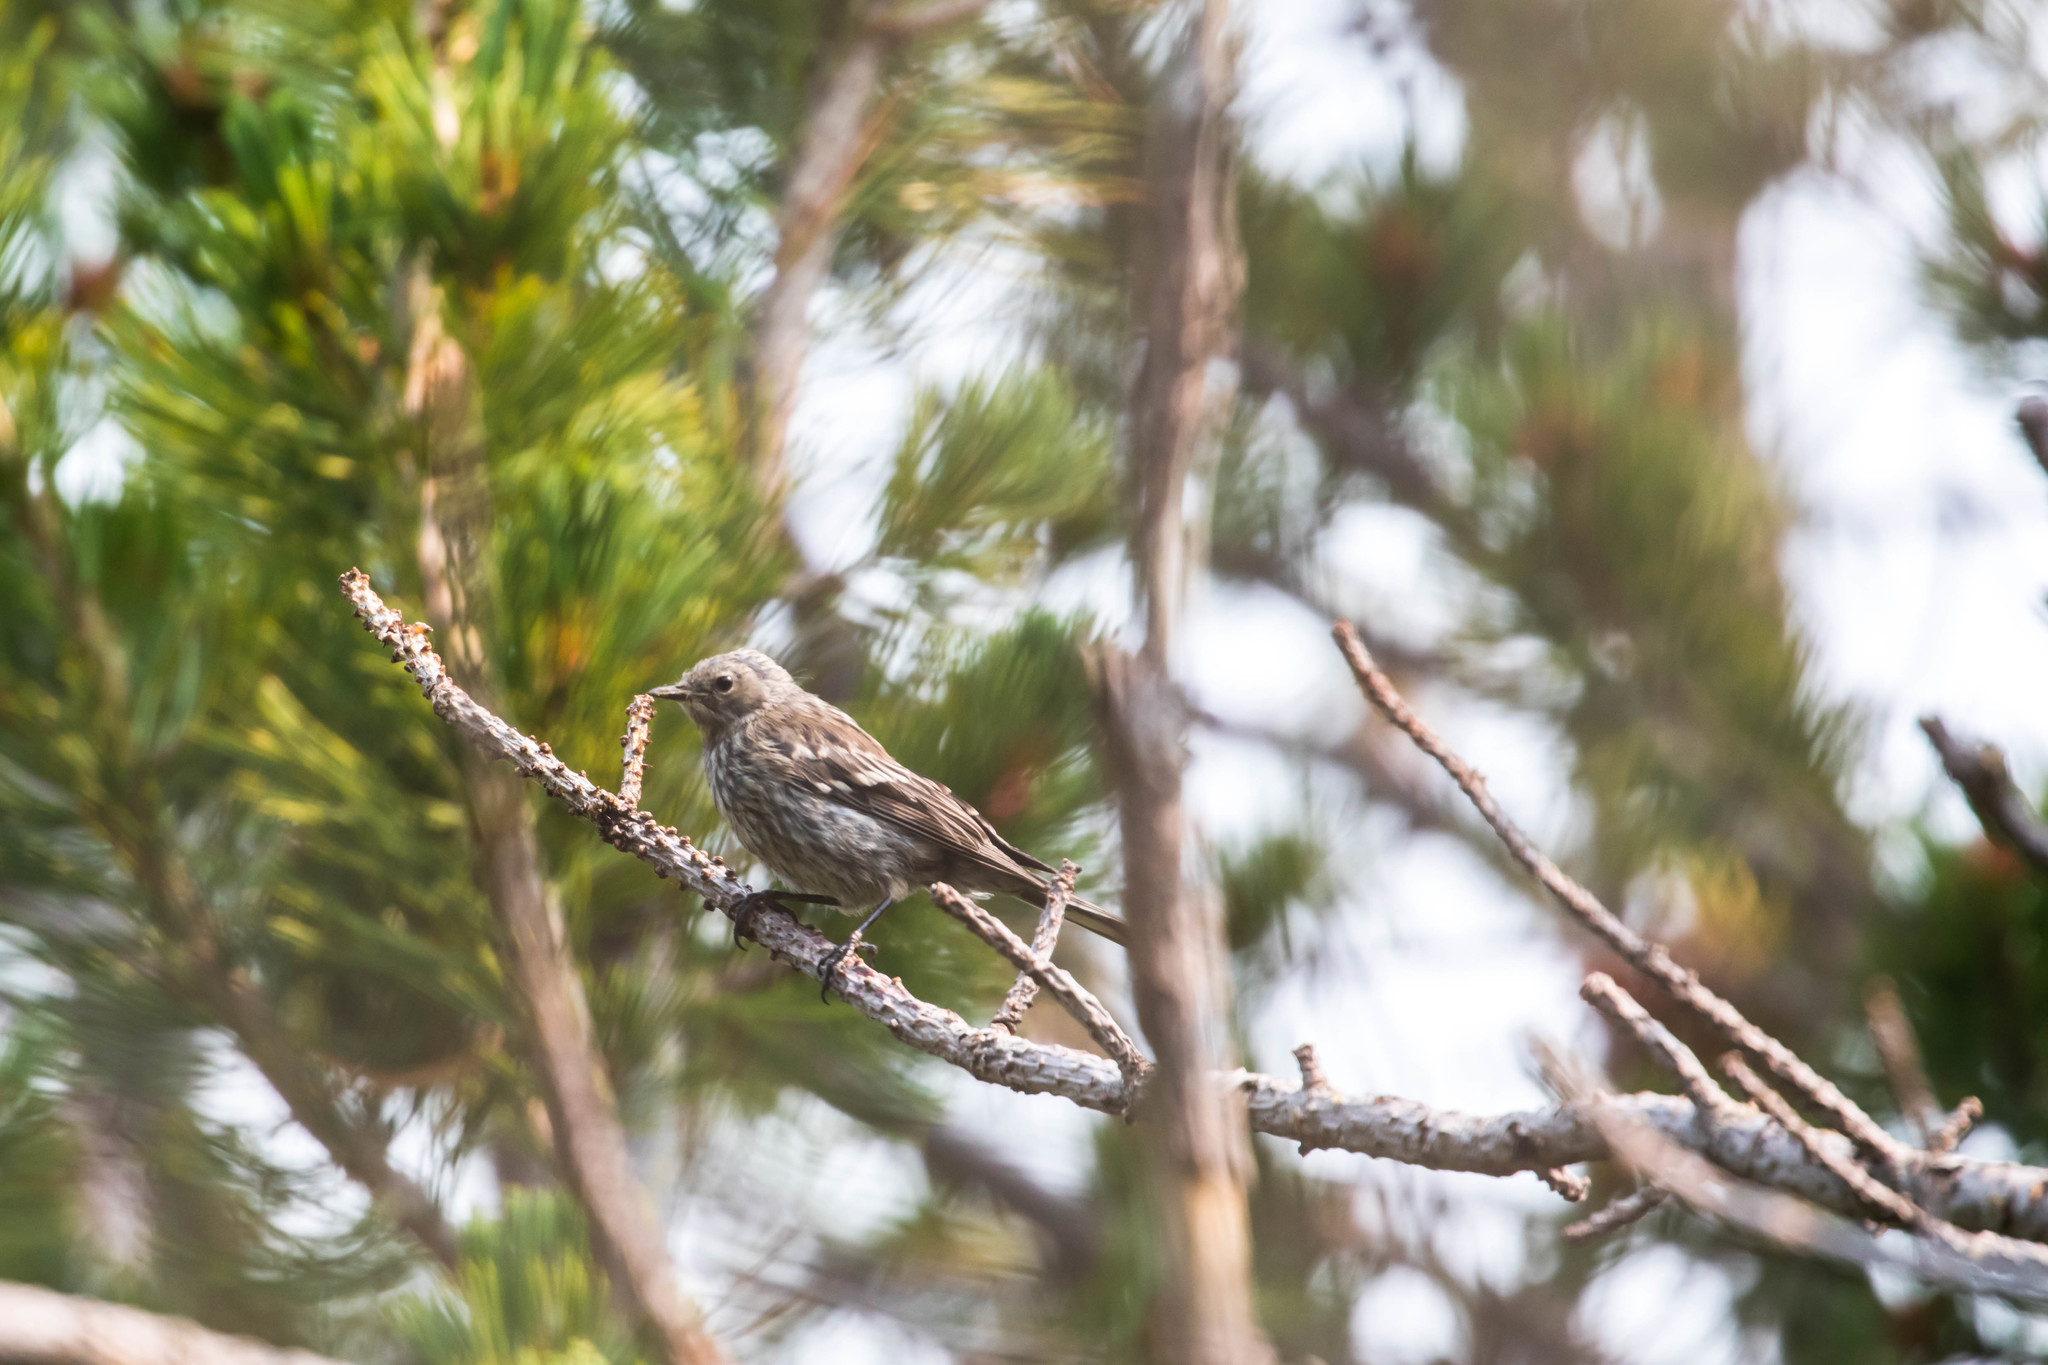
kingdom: Animalia
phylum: Chordata
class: Aves
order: Passeriformes
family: Parulidae
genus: Setophaga
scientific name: Setophaga coronata
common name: Myrtle warbler
